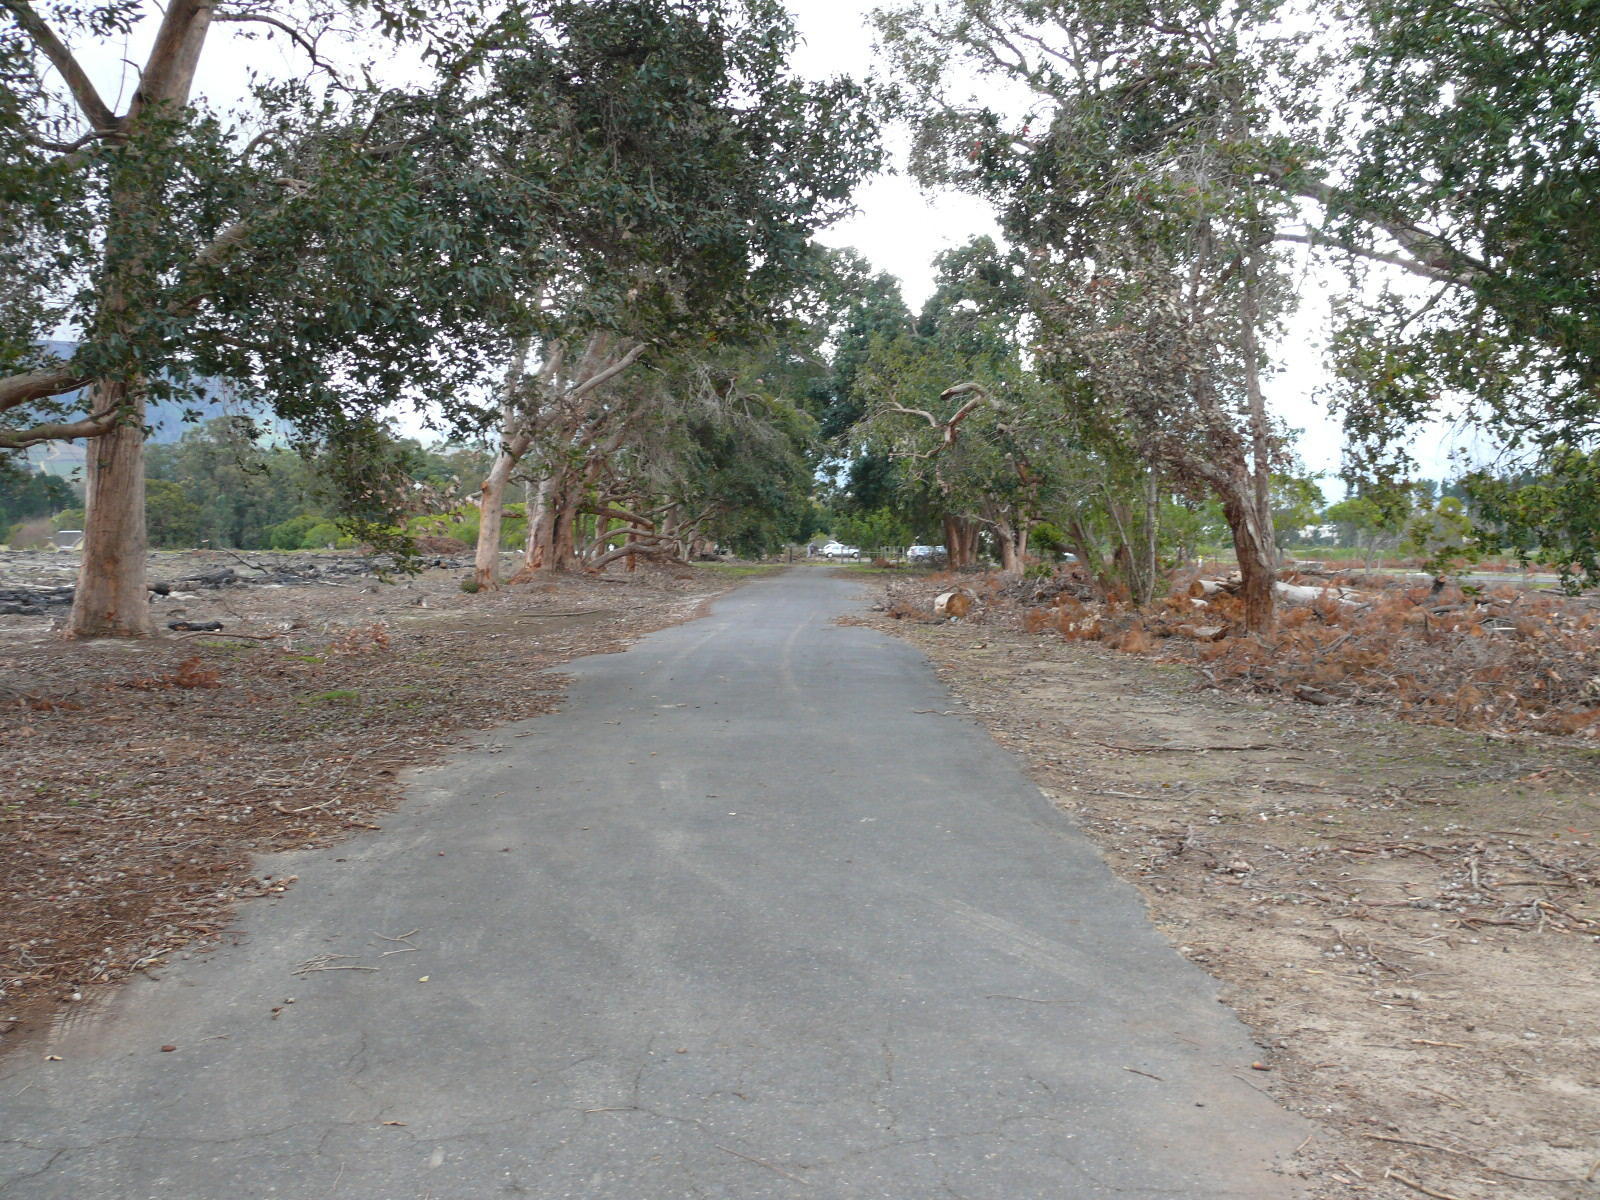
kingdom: Plantae
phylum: Tracheophyta
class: Magnoliopsida
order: Myrtales
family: Myrtaceae
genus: Corymbia
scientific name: Corymbia ficifolia
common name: Redflower gum
